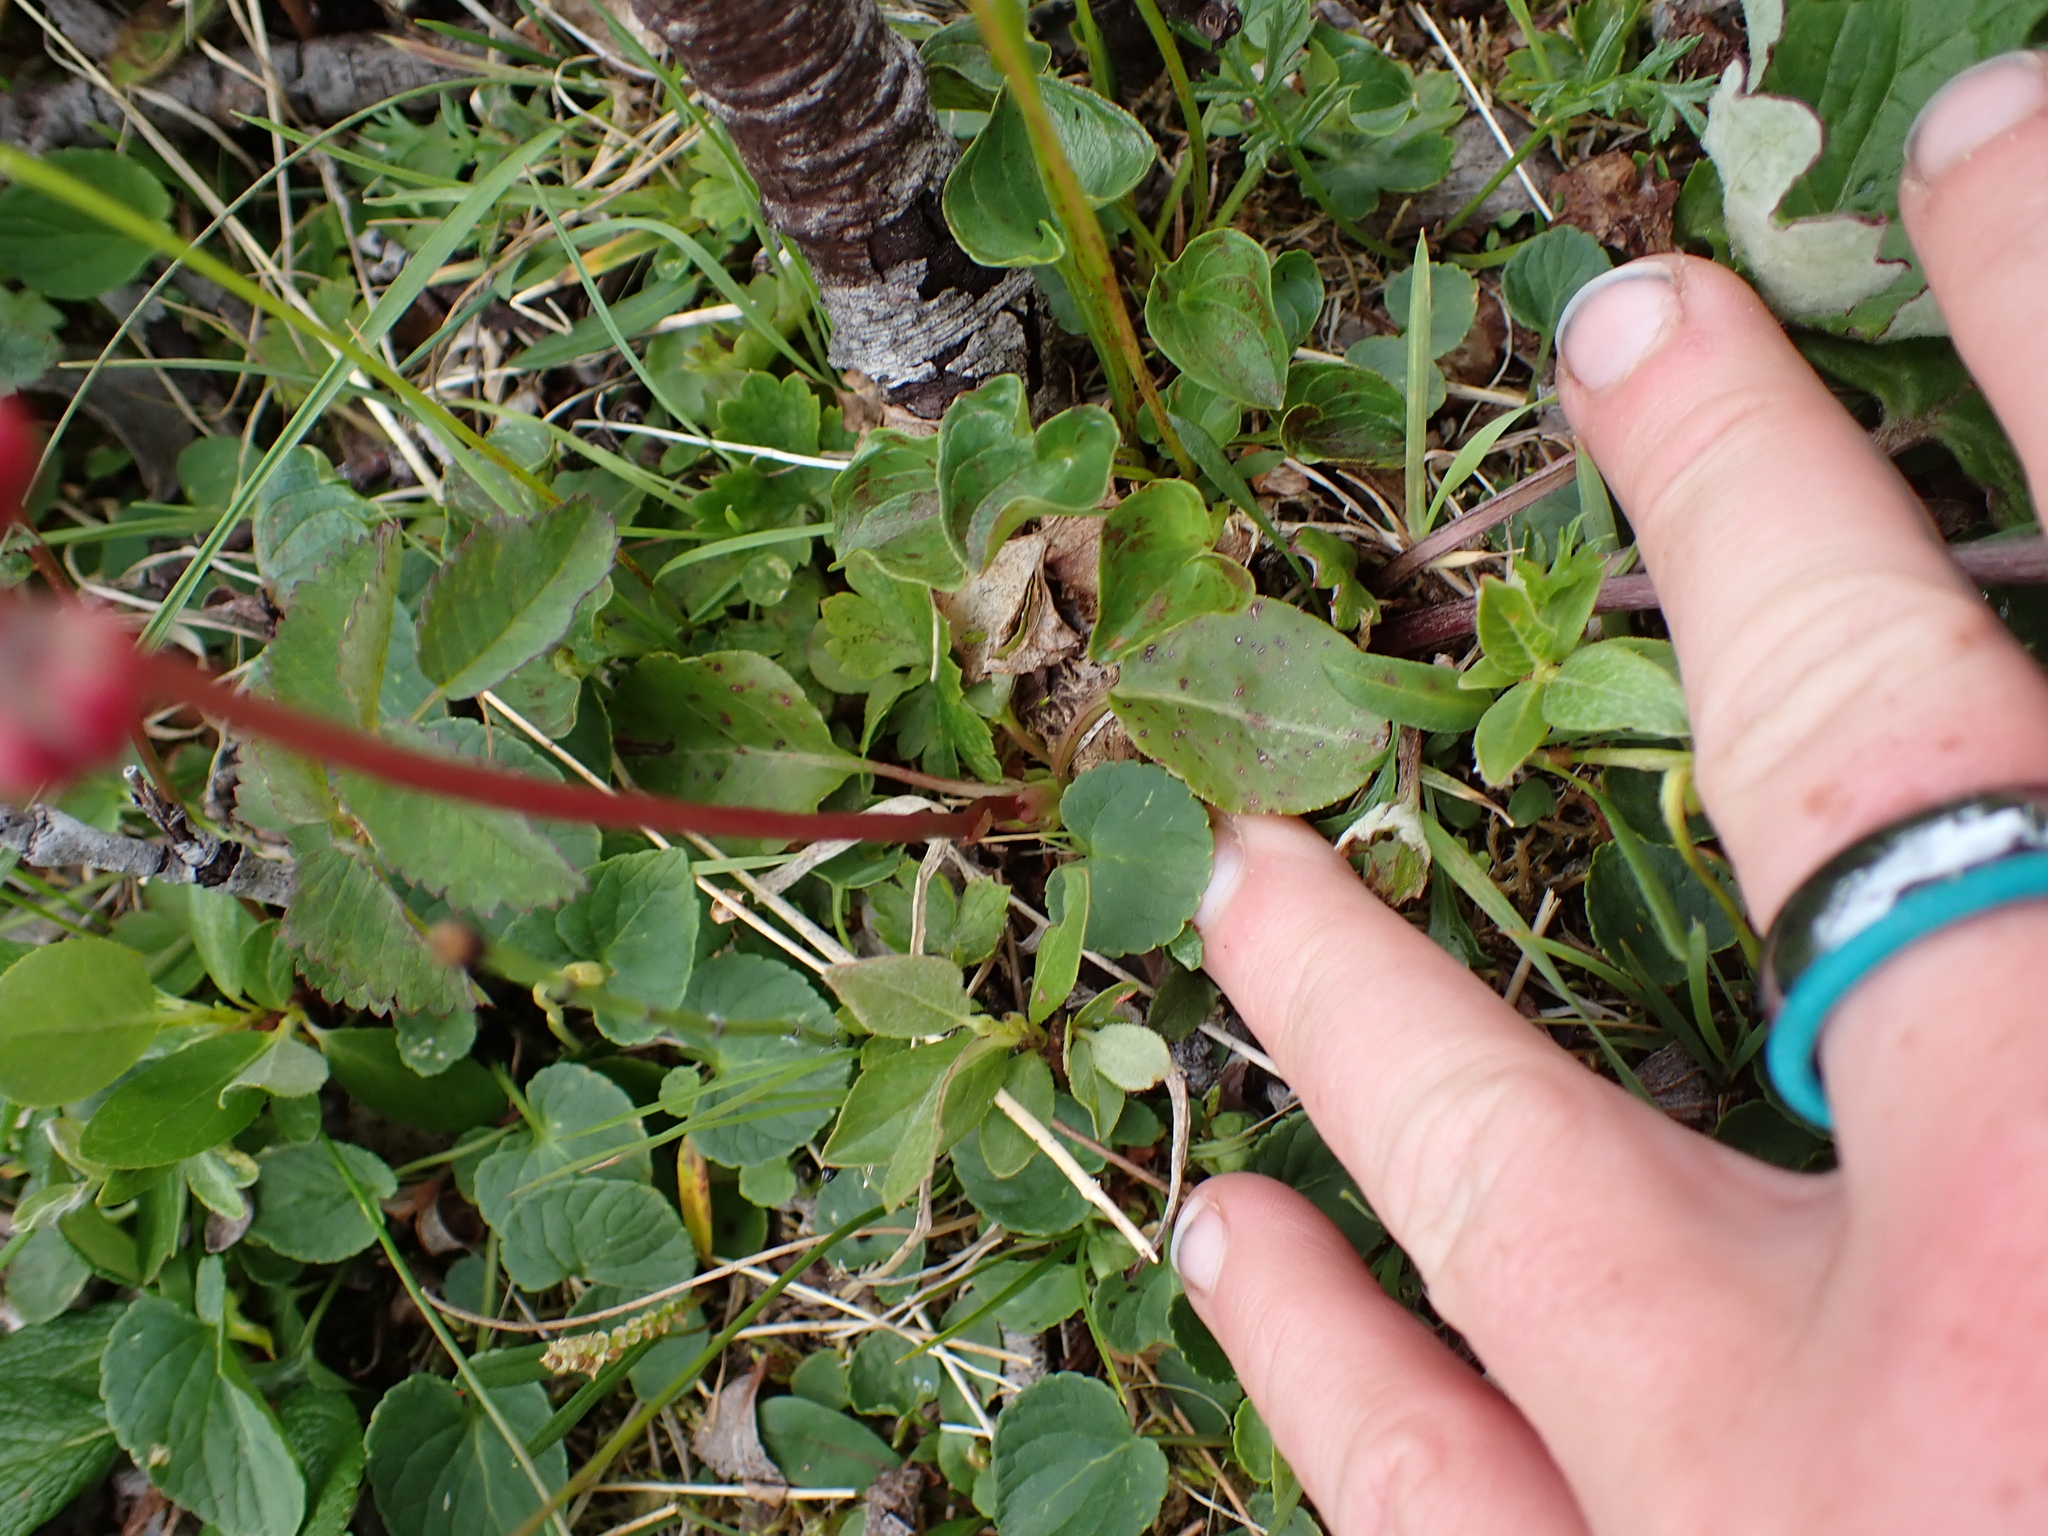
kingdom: Plantae
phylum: Tracheophyta
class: Magnoliopsida
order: Ericales
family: Ericaceae
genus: Pyrola
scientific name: Pyrola minor
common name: Common wintergreen
